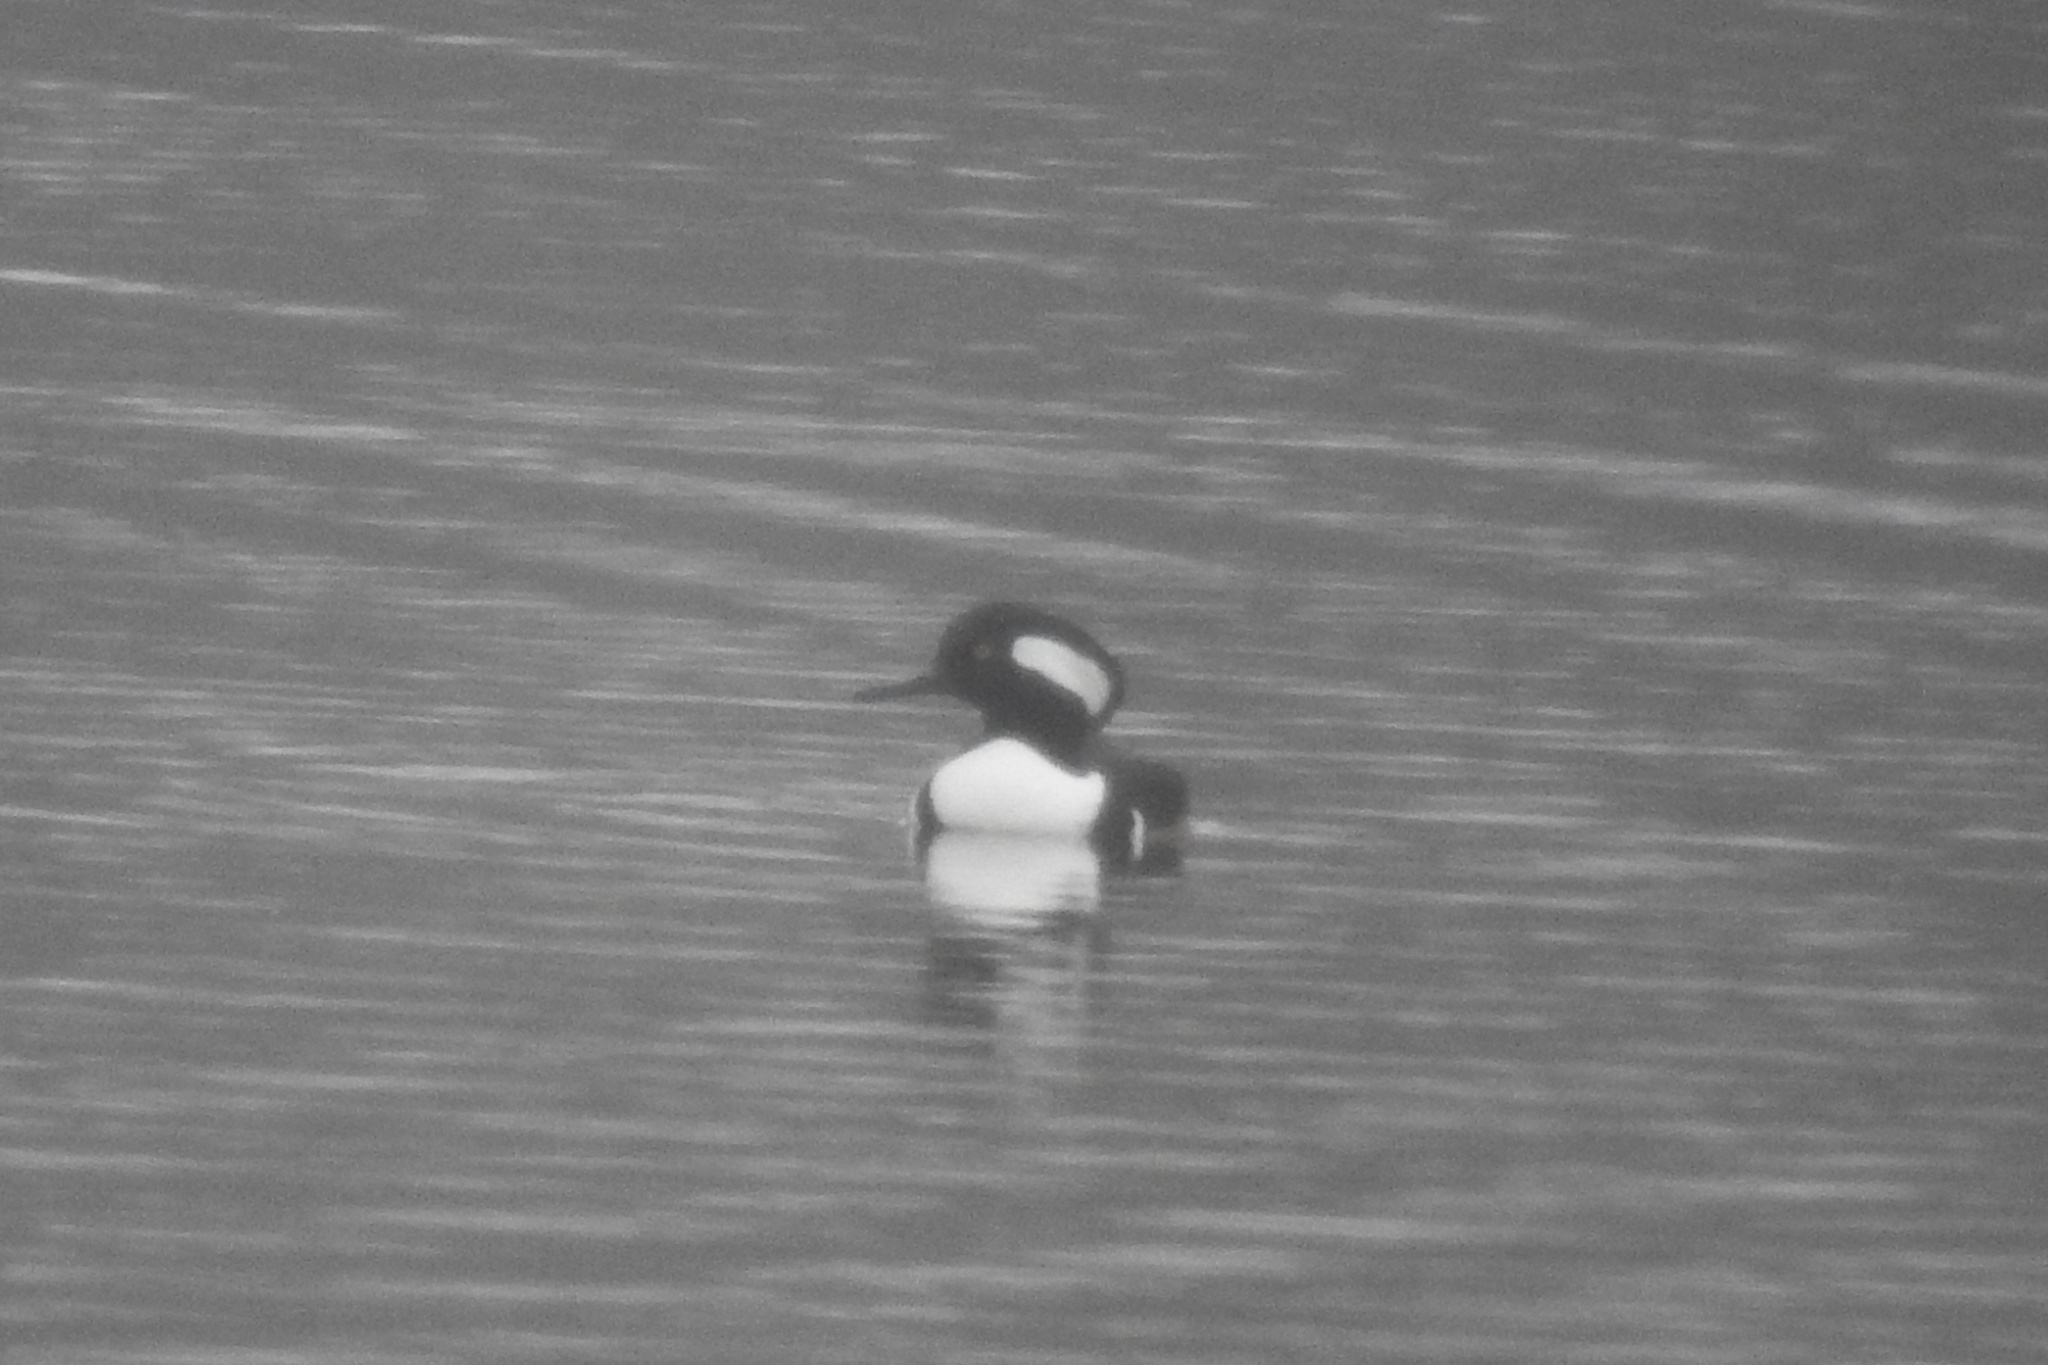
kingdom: Animalia
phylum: Chordata
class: Aves
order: Anseriformes
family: Anatidae
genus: Lophodytes
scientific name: Lophodytes cucullatus
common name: Hooded merganser
